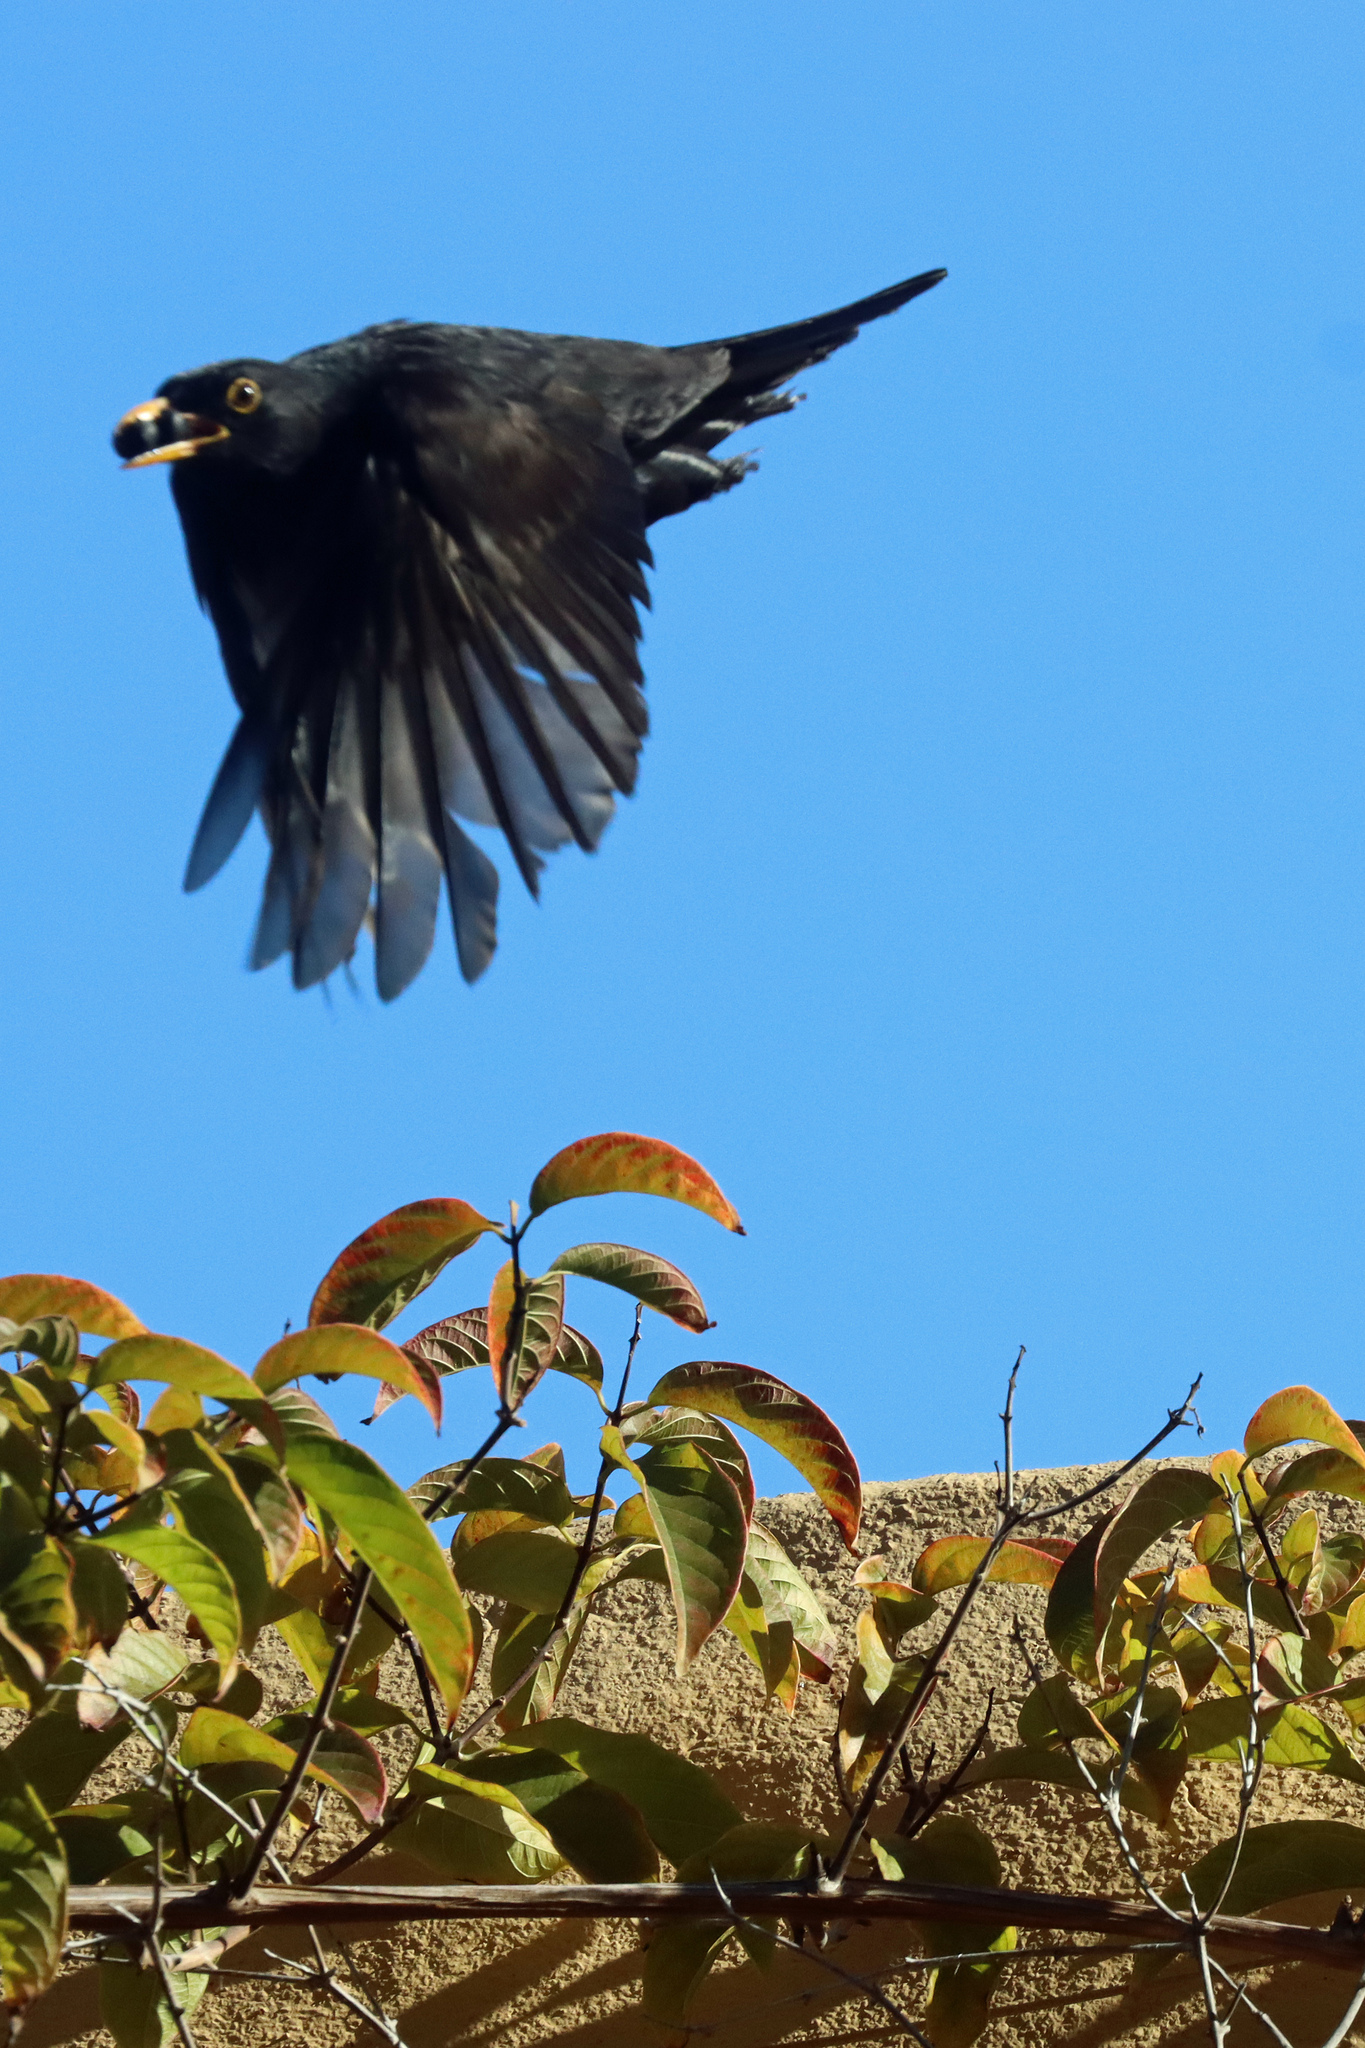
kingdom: Animalia
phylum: Chordata
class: Aves
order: Passeriformes
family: Turdidae
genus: Turdus
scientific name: Turdus merula
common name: Common blackbird
